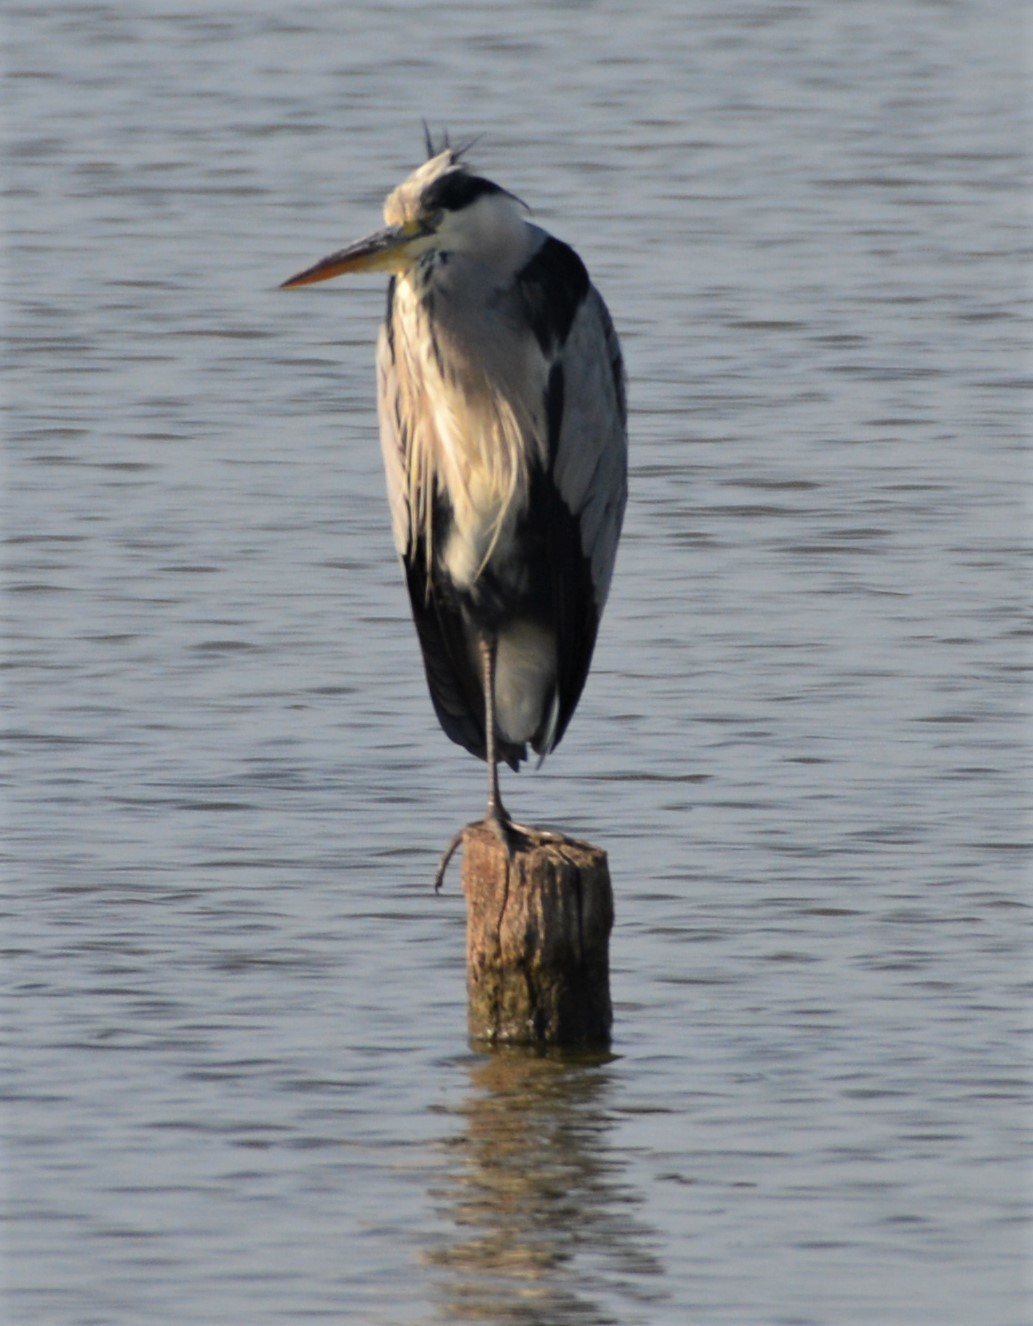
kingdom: Animalia
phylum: Chordata
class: Aves
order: Pelecaniformes
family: Ardeidae
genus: Ardea
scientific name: Ardea cinerea
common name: Grey heron
